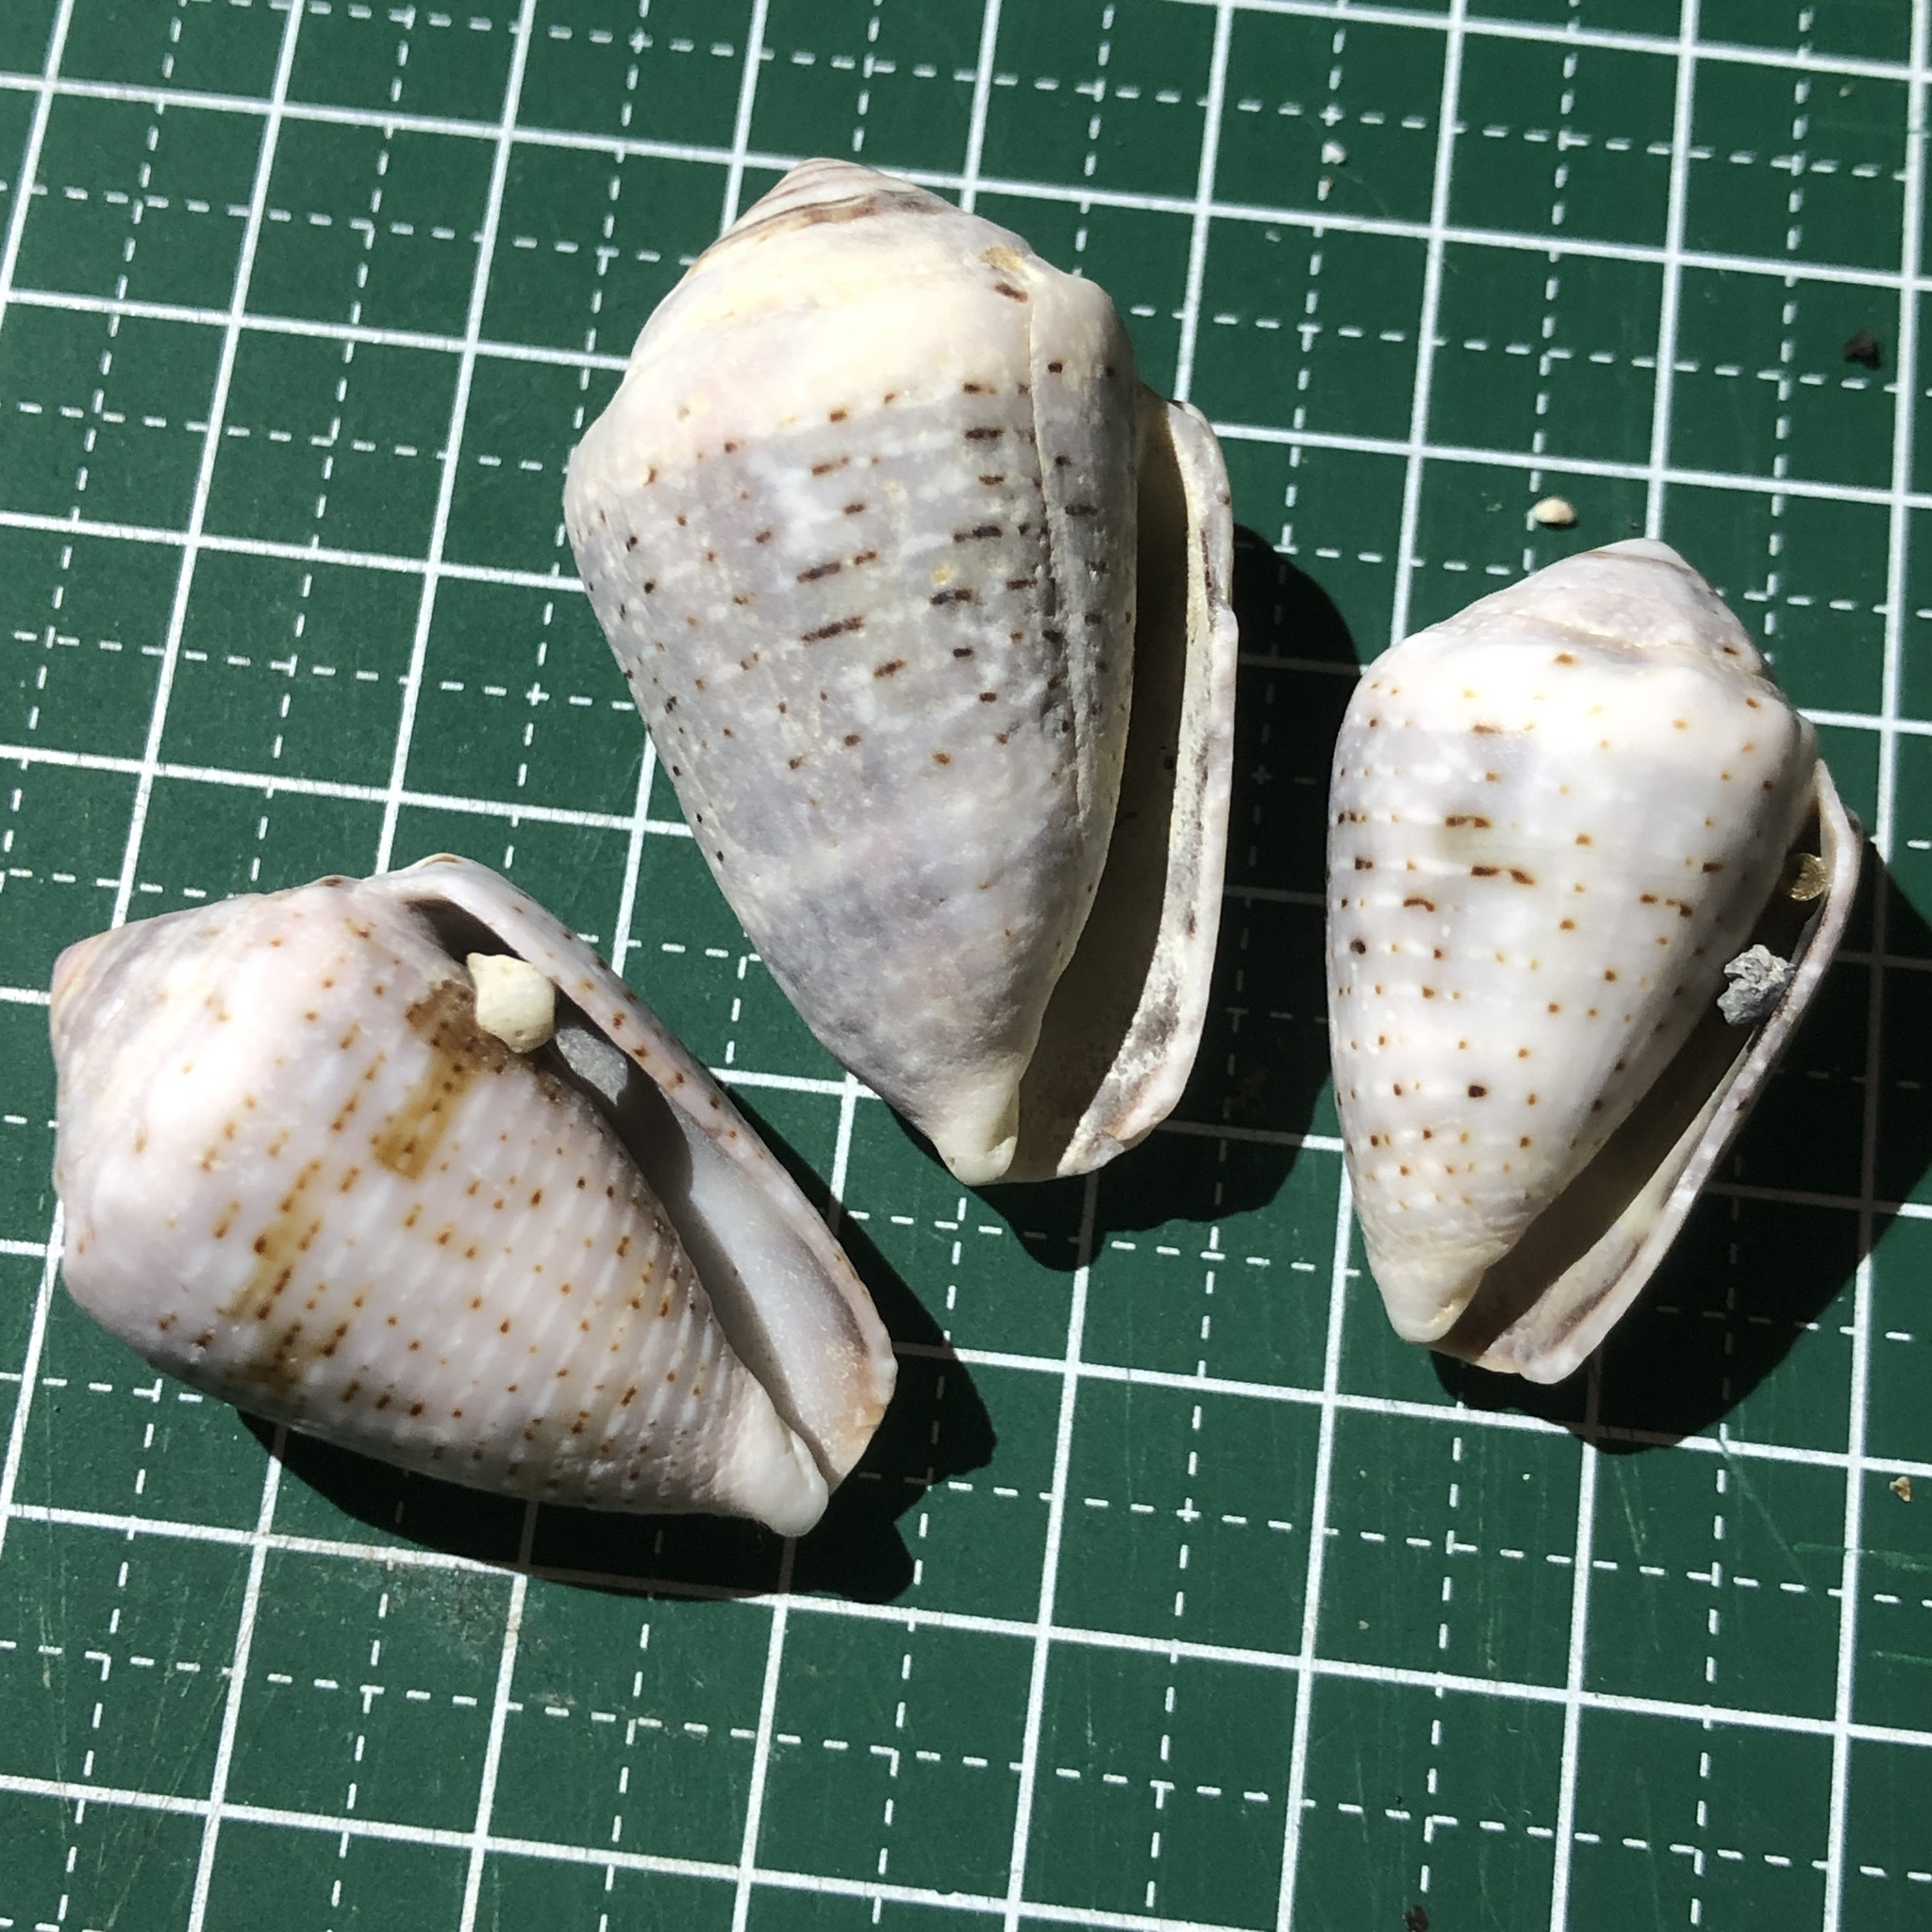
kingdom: Animalia
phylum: Mollusca
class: Gastropoda
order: Neogastropoda
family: Conidae
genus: Conus
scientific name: Conus coronatus
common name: Coronated cone
